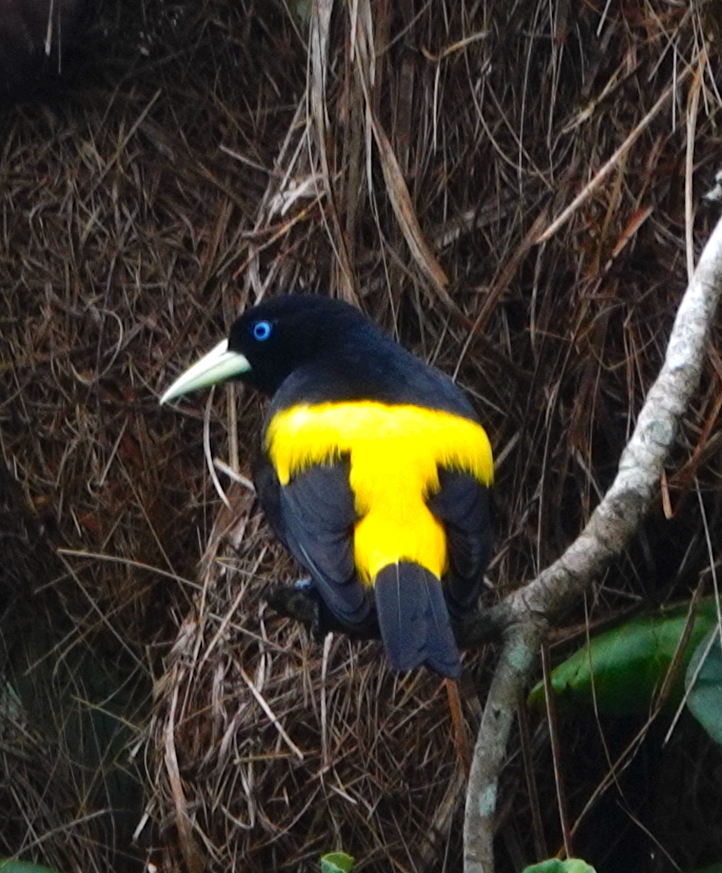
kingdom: Animalia
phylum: Chordata
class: Aves
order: Passeriformes
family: Icteridae
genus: Cacicus
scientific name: Cacicus cela
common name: Yellow-rumped cacique
